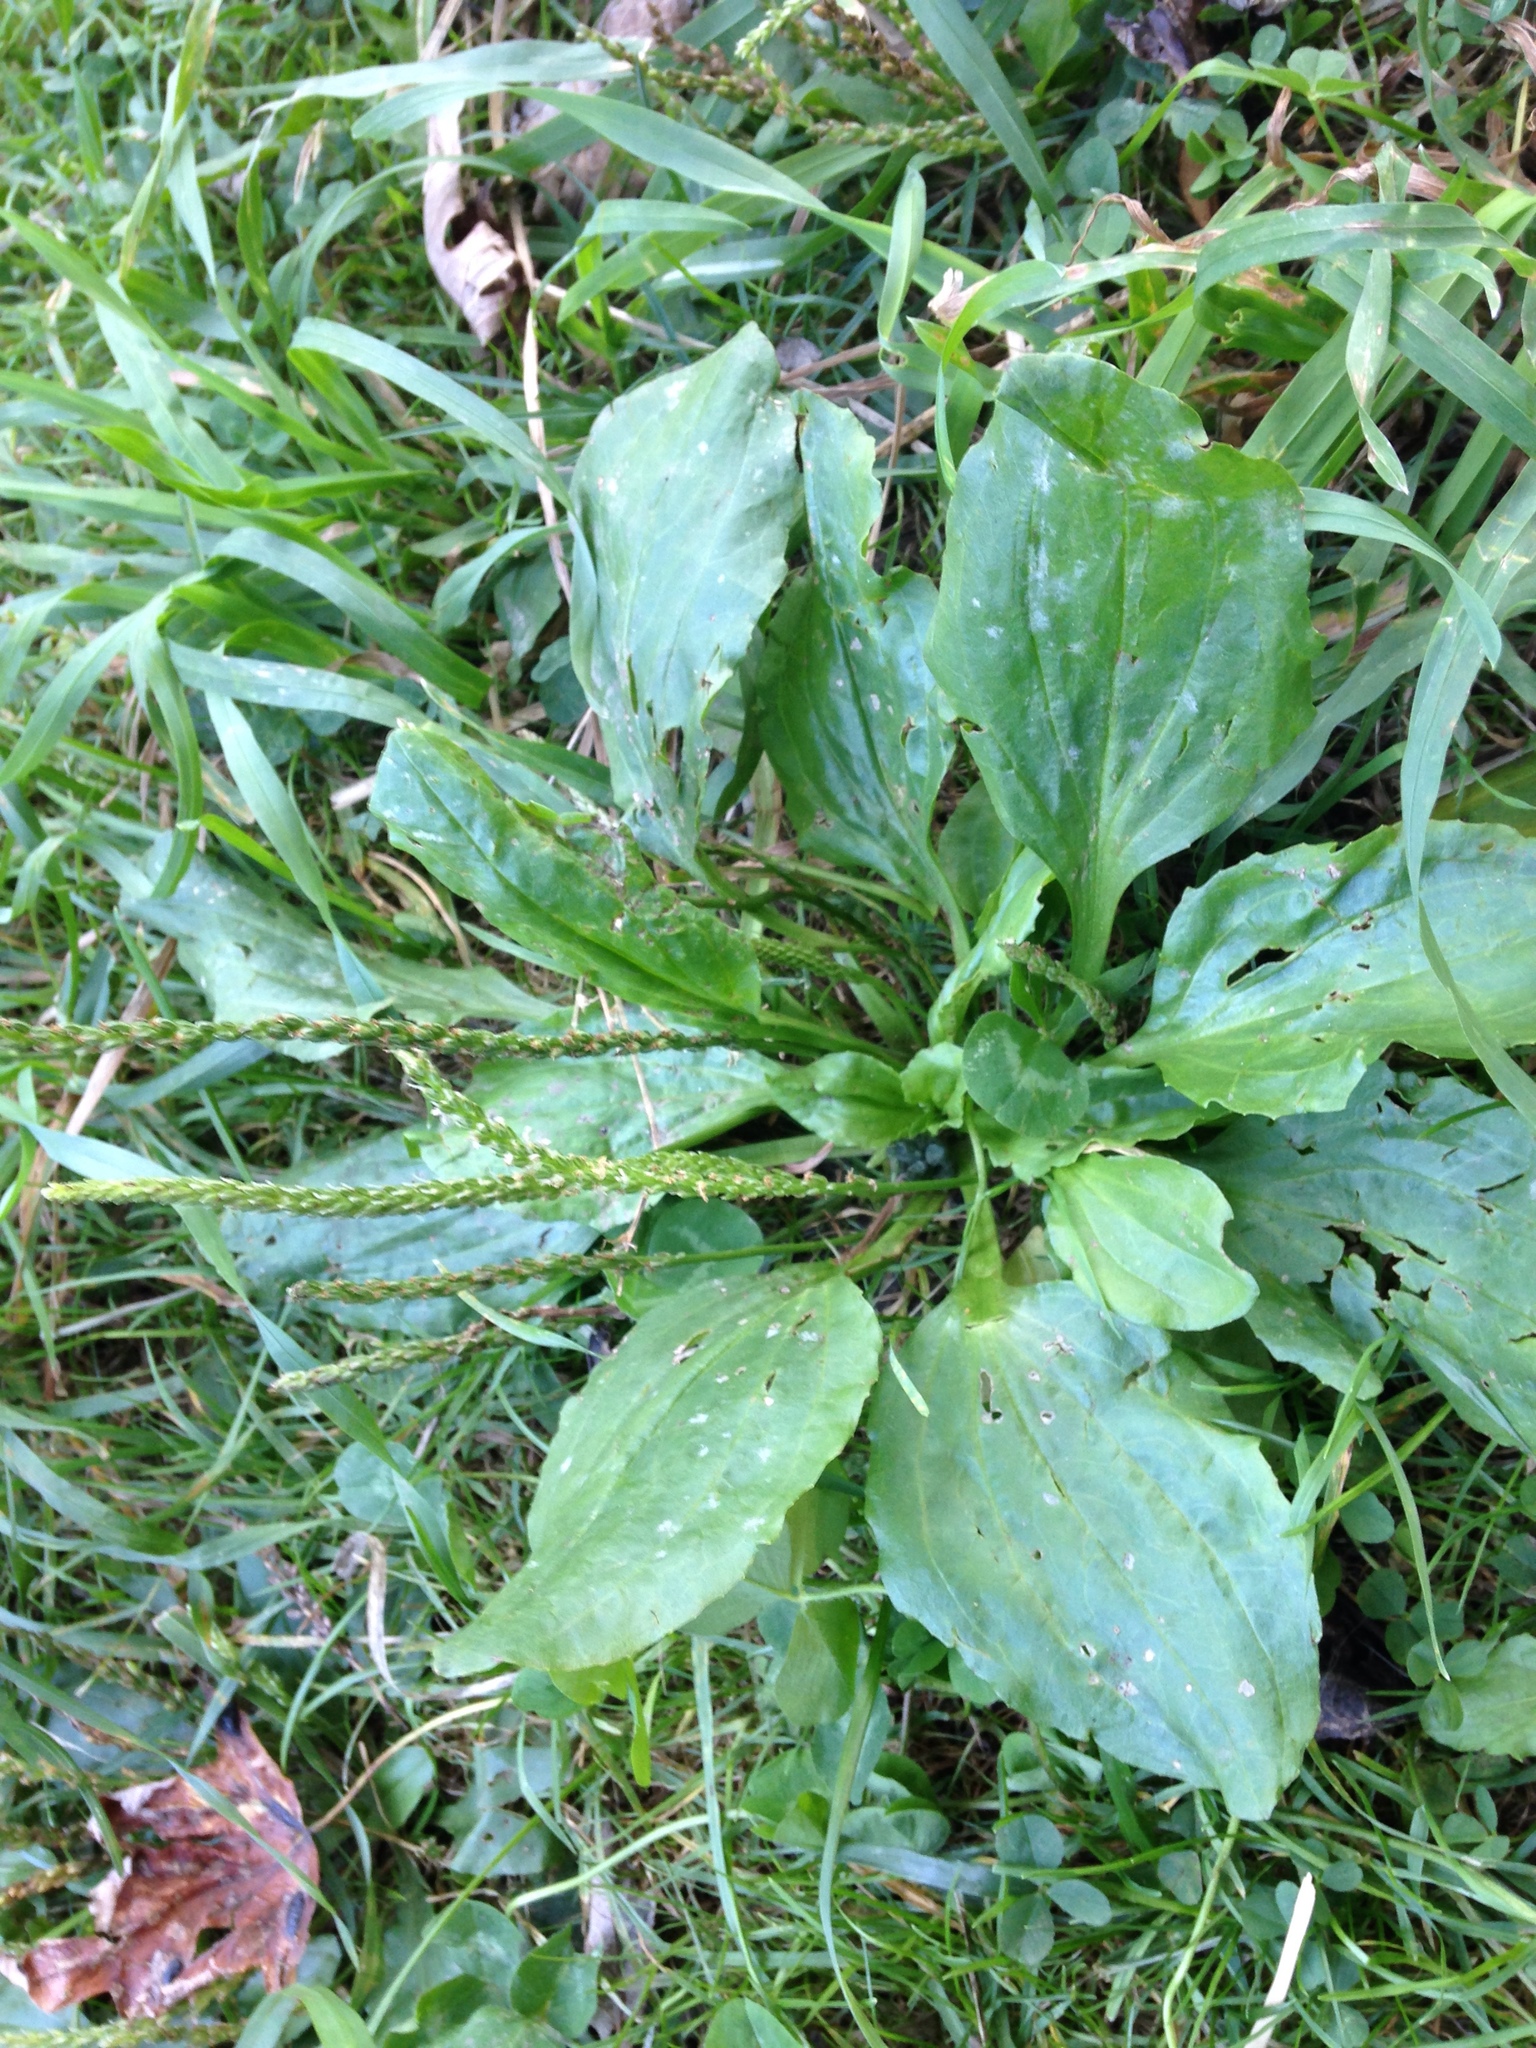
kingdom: Plantae
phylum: Tracheophyta
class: Magnoliopsida
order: Lamiales
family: Plantaginaceae
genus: Plantago
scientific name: Plantago major
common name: Common plantain
